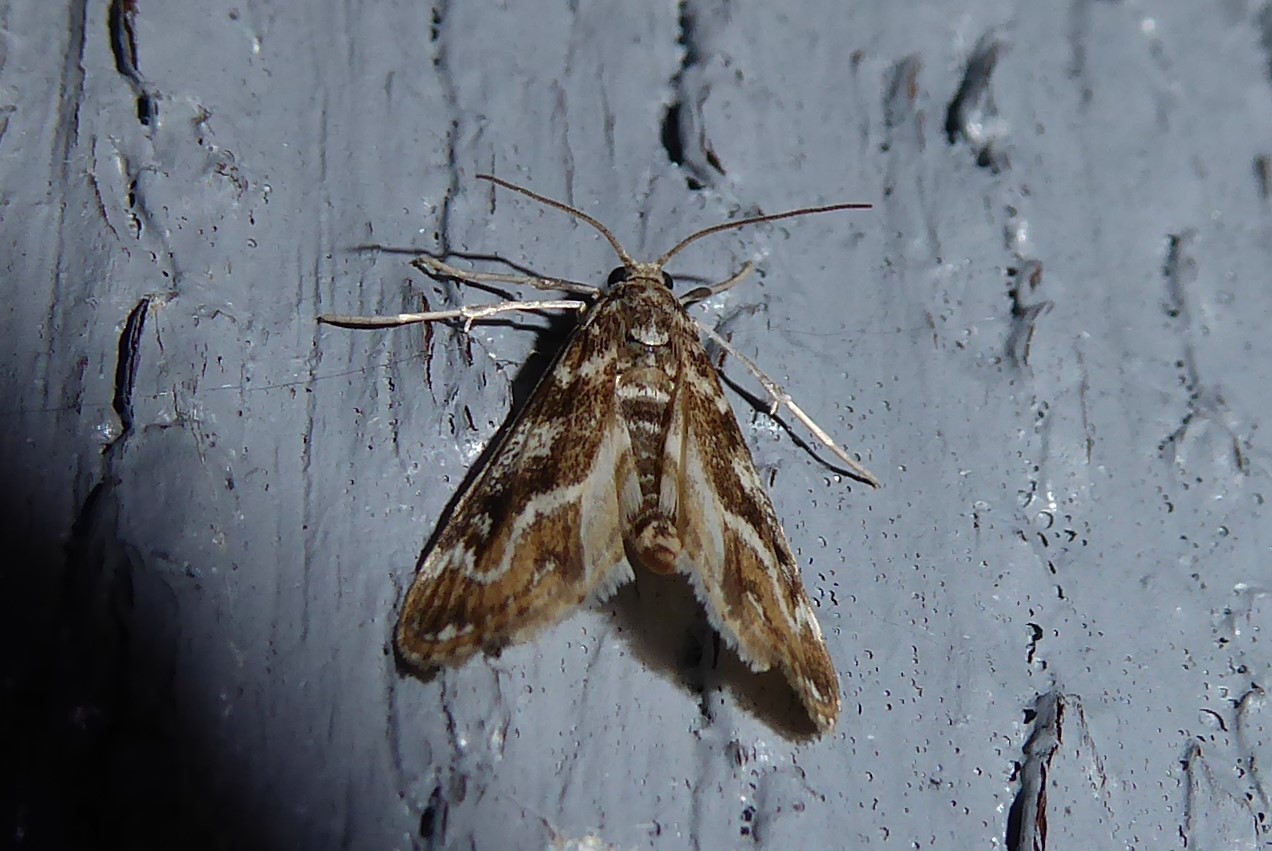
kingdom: Animalia
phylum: Arthropoda
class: Insecta
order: Lepidoptera
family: Crambidae
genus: Hygraula
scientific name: Hygraula nitens
